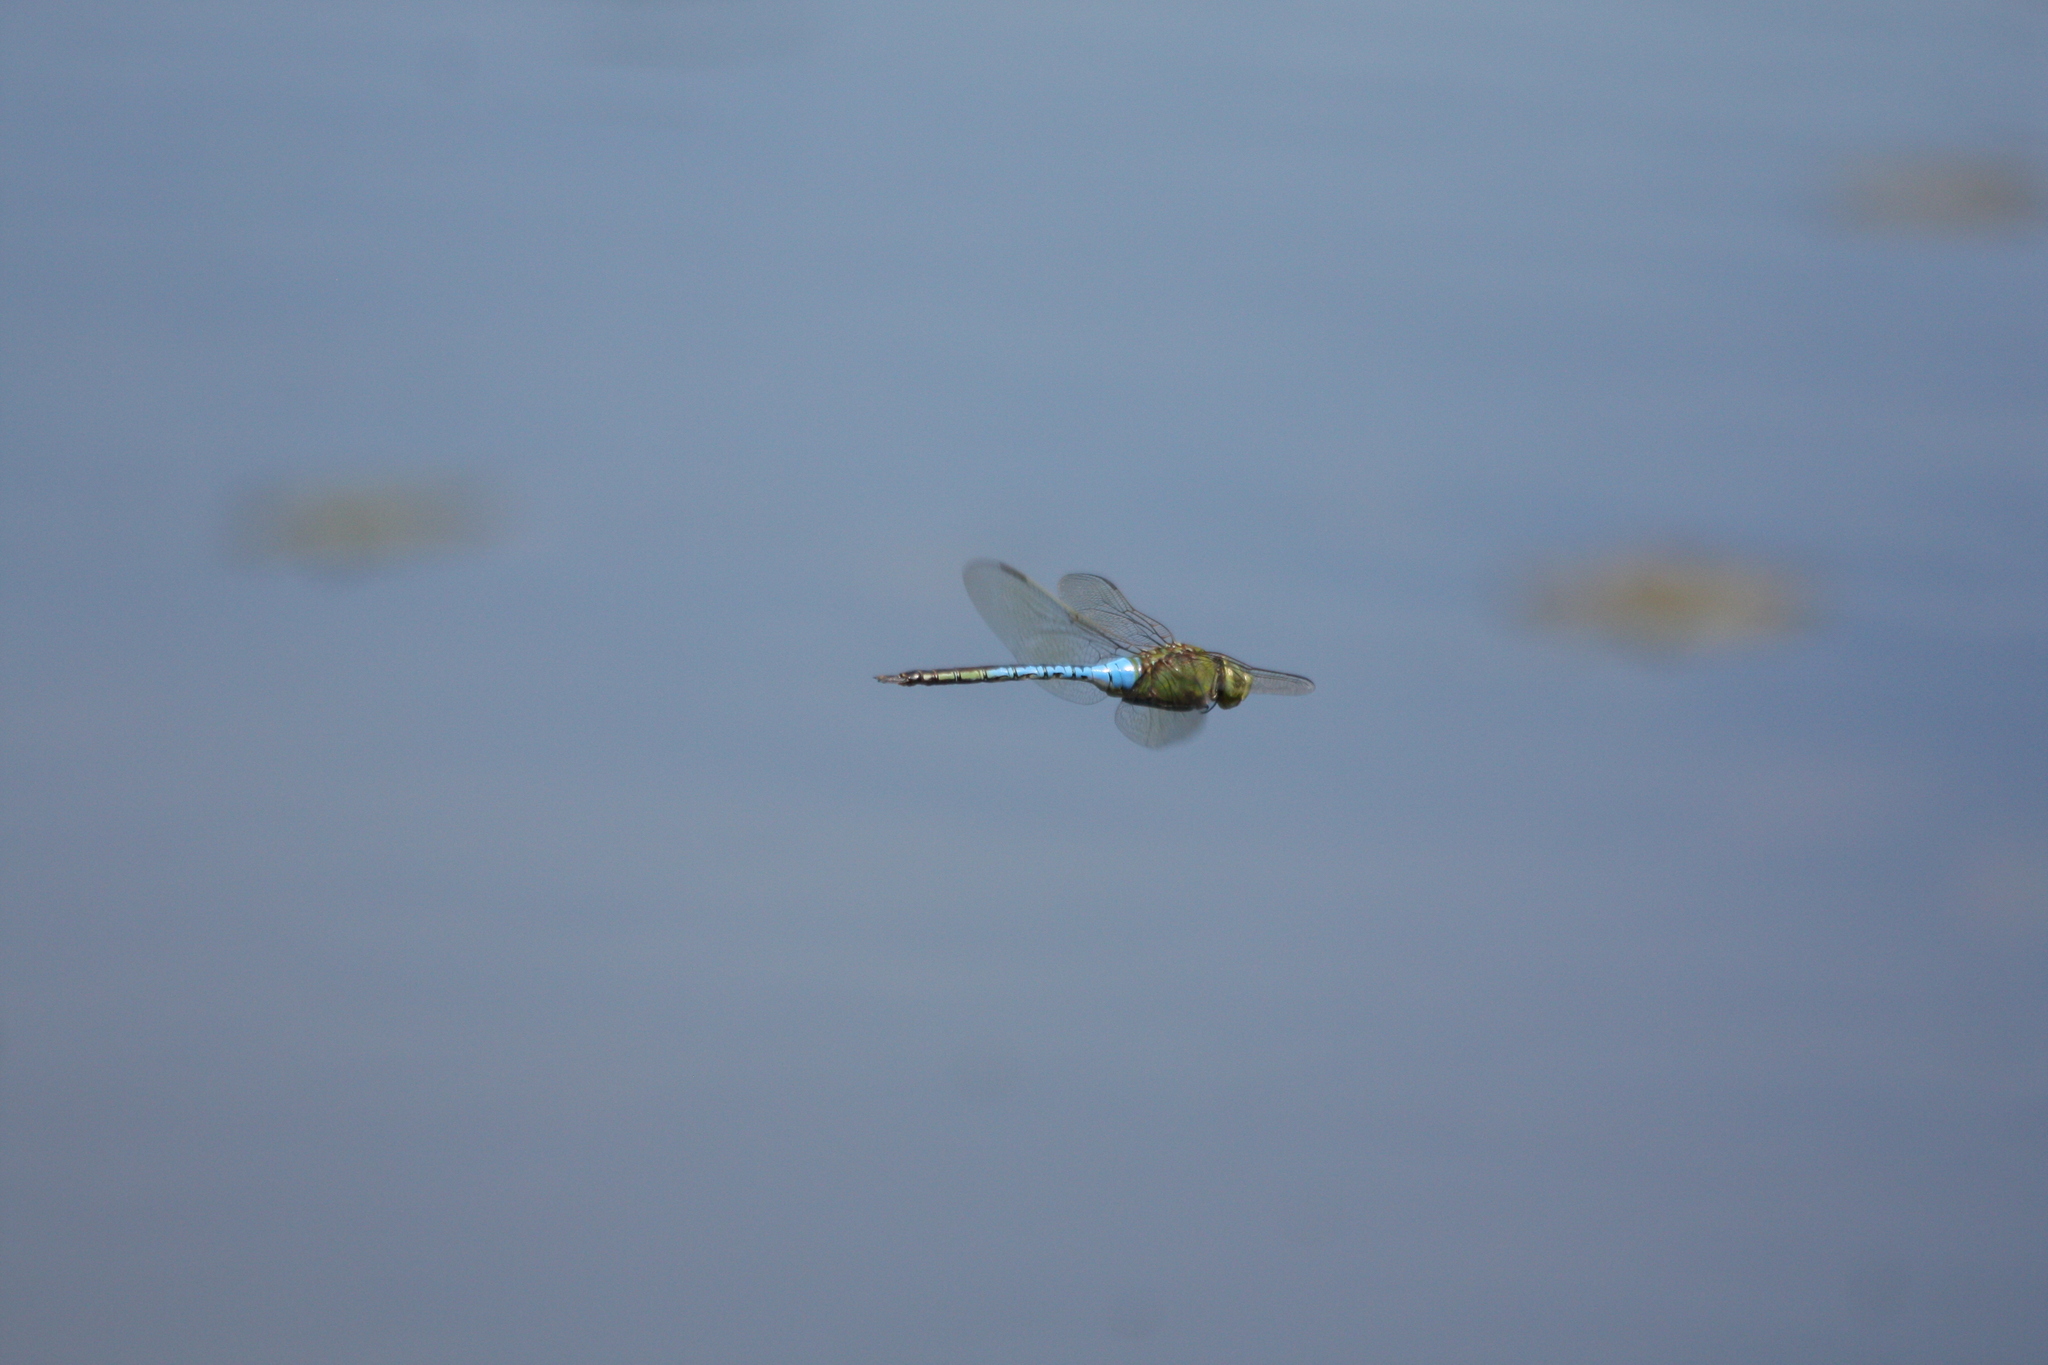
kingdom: Animalia
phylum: Arthropoda
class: Insecta
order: Odonata
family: Aeshnidae
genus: Anax
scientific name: Anax junius
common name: Common green darner
